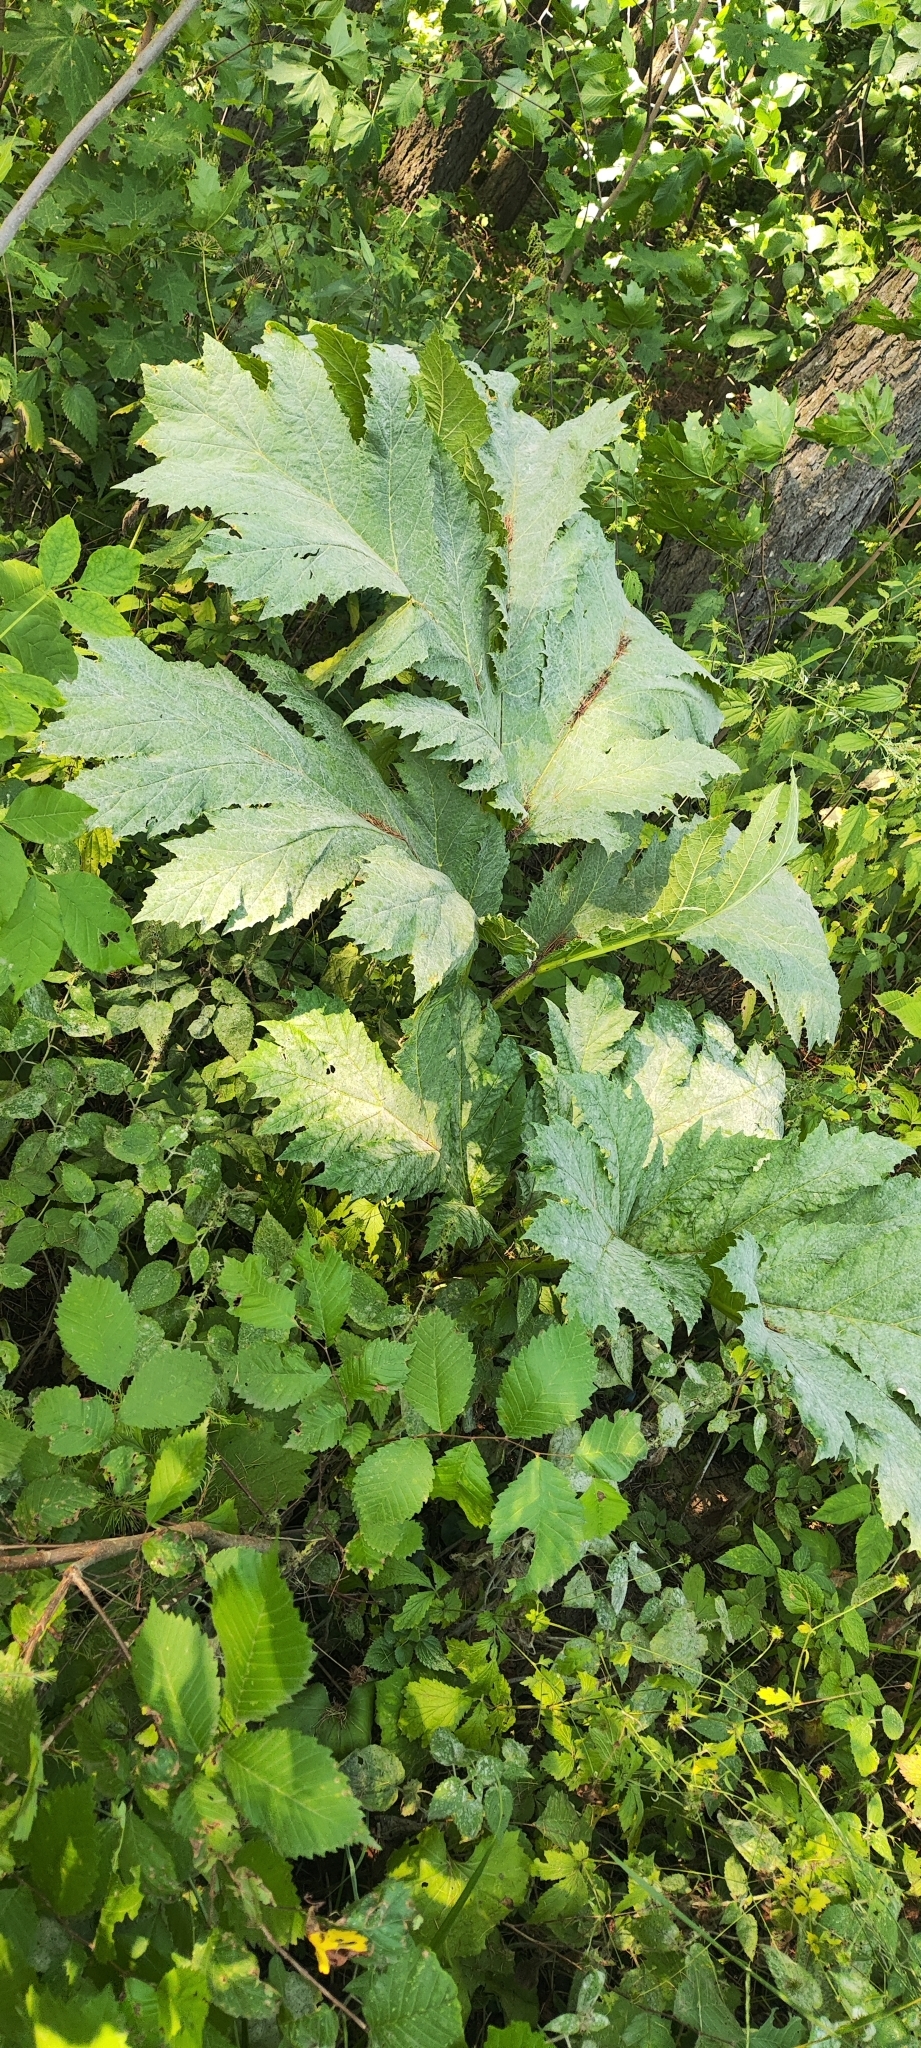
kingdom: Plantae
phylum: Tracheophyta
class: Magnoliopsida
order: Apiales
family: Apiaceae
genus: Heracleum
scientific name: Heracleum sosnowskyi
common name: Sosnowsky's hogweed
